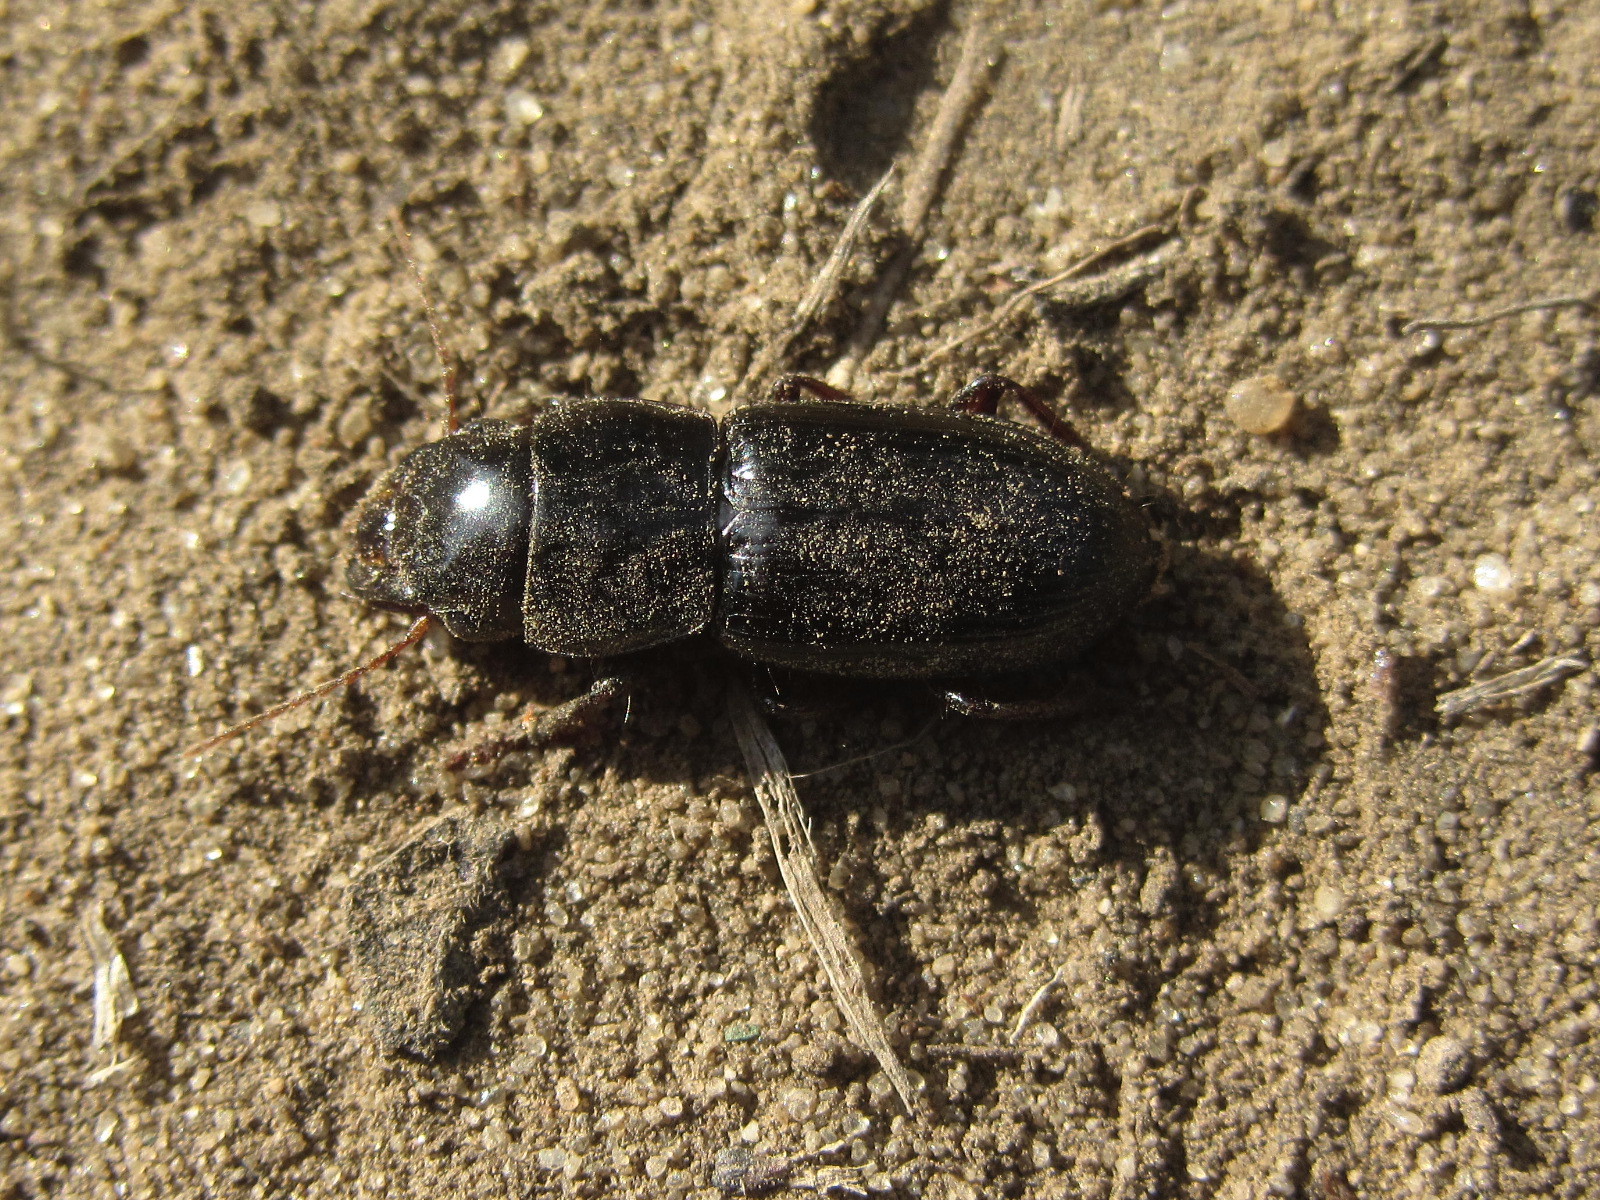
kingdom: Animalia
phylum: Arthropoda
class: Insecta
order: Coleoptera
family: Carabidae
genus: Acinopus
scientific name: Acinopus ammophilus
